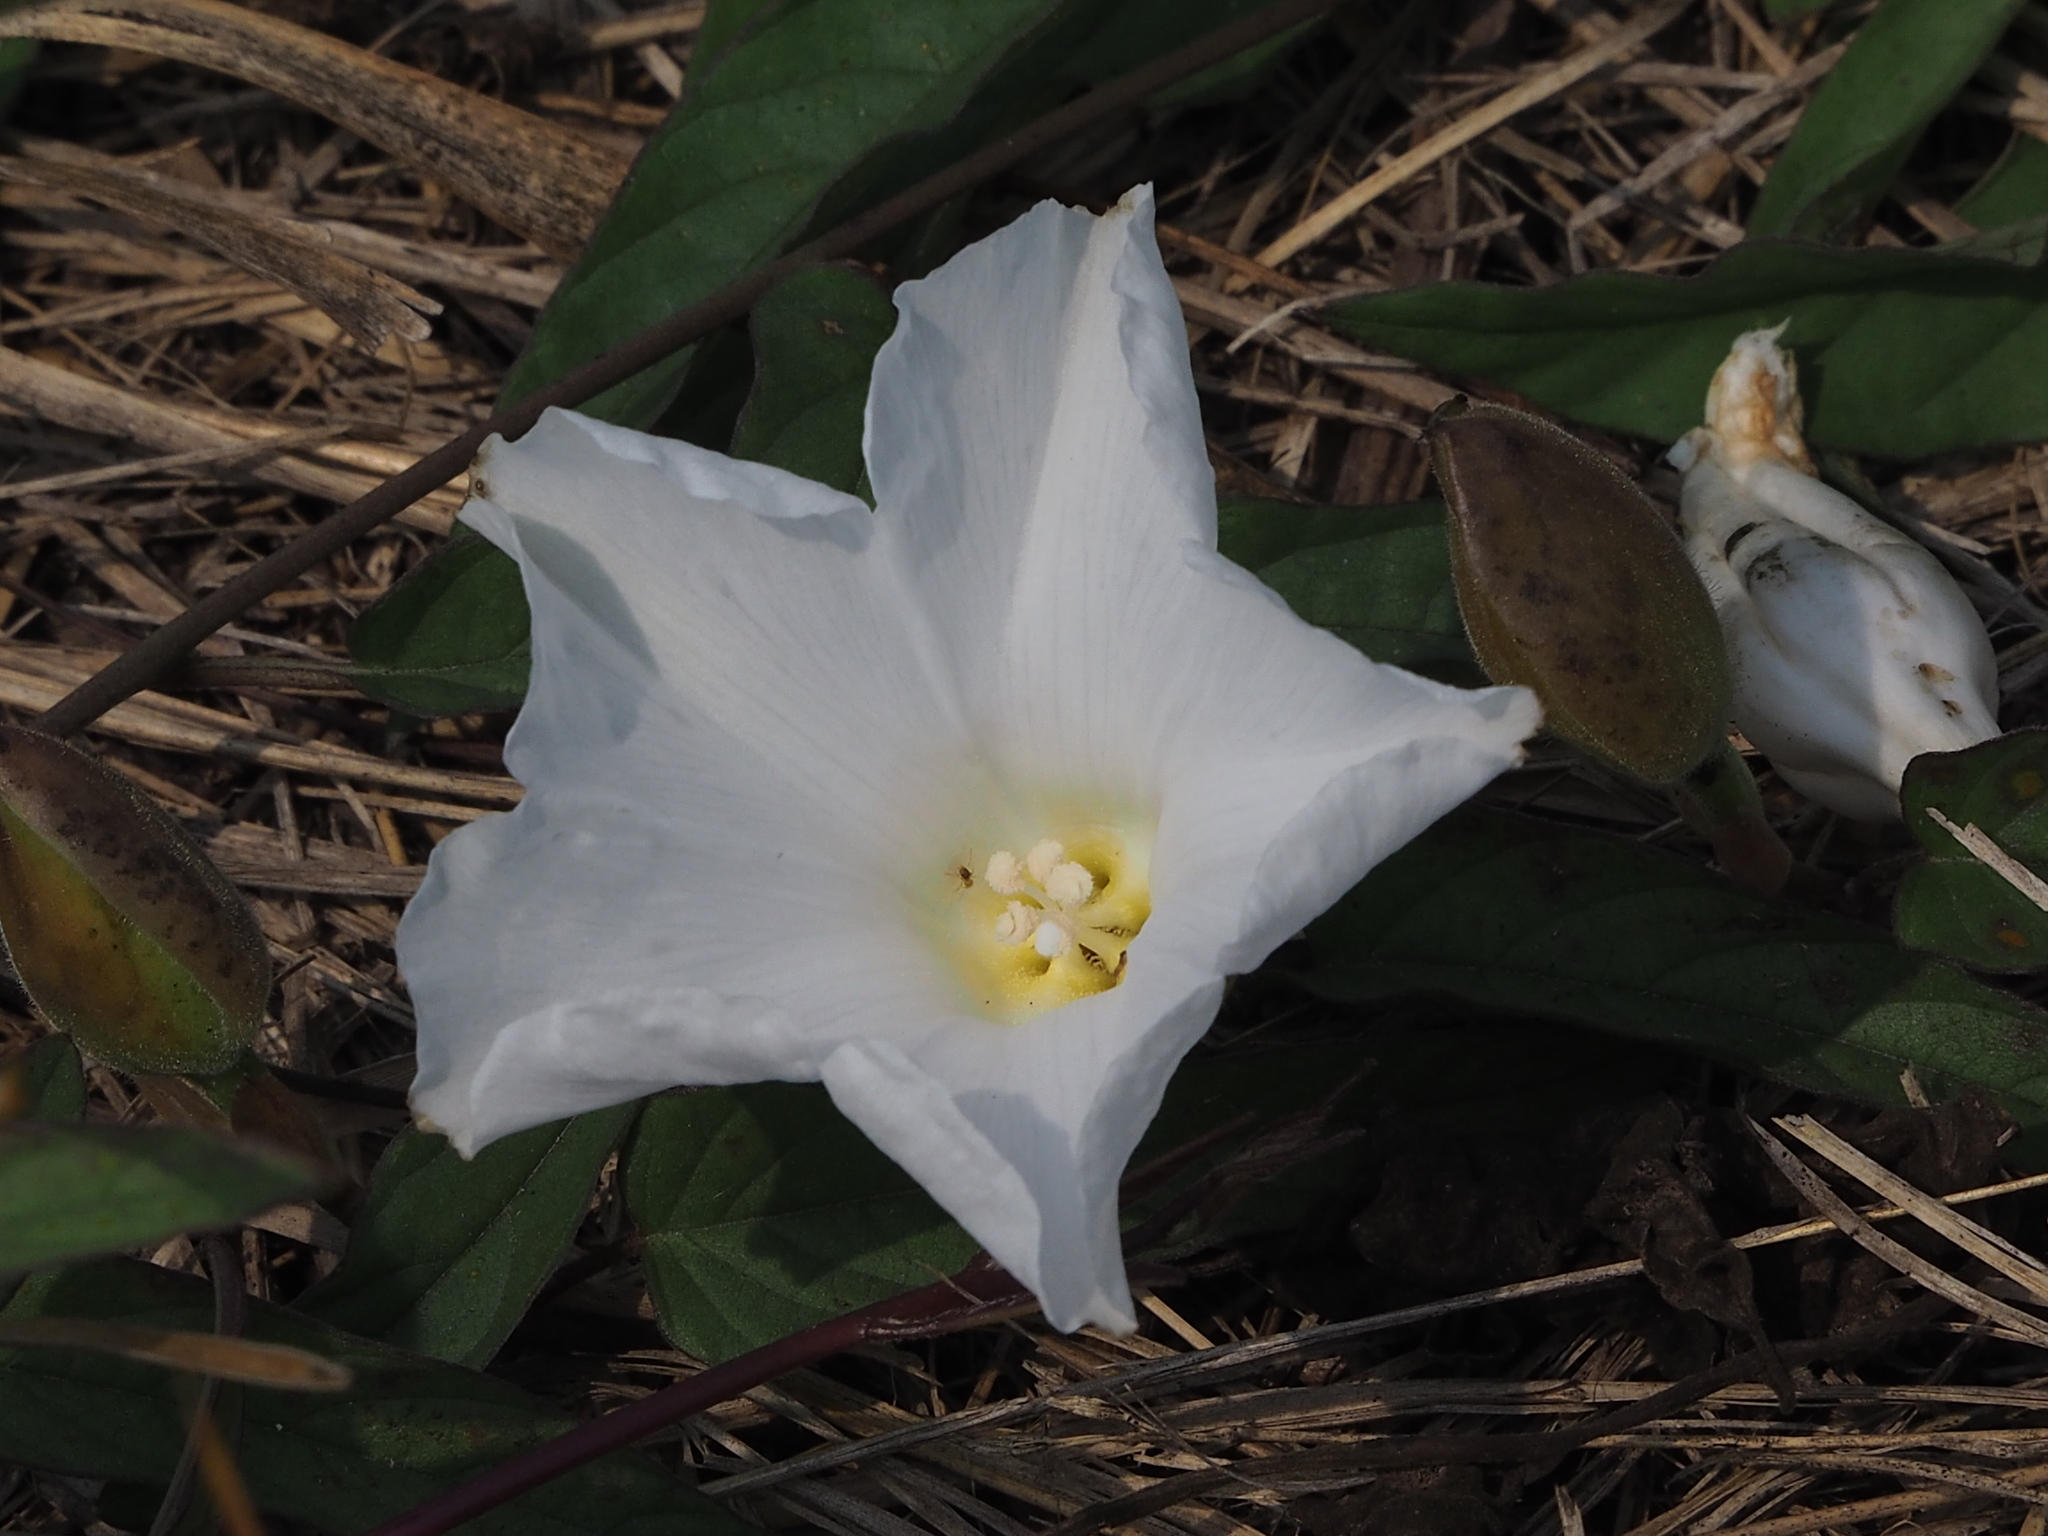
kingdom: Plantae
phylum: Tracheophyta
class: Magnoliopsida
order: Solanales
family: Convolvulaceae
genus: Operculina
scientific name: Operculina turpethum
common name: Transparent wood-rose
